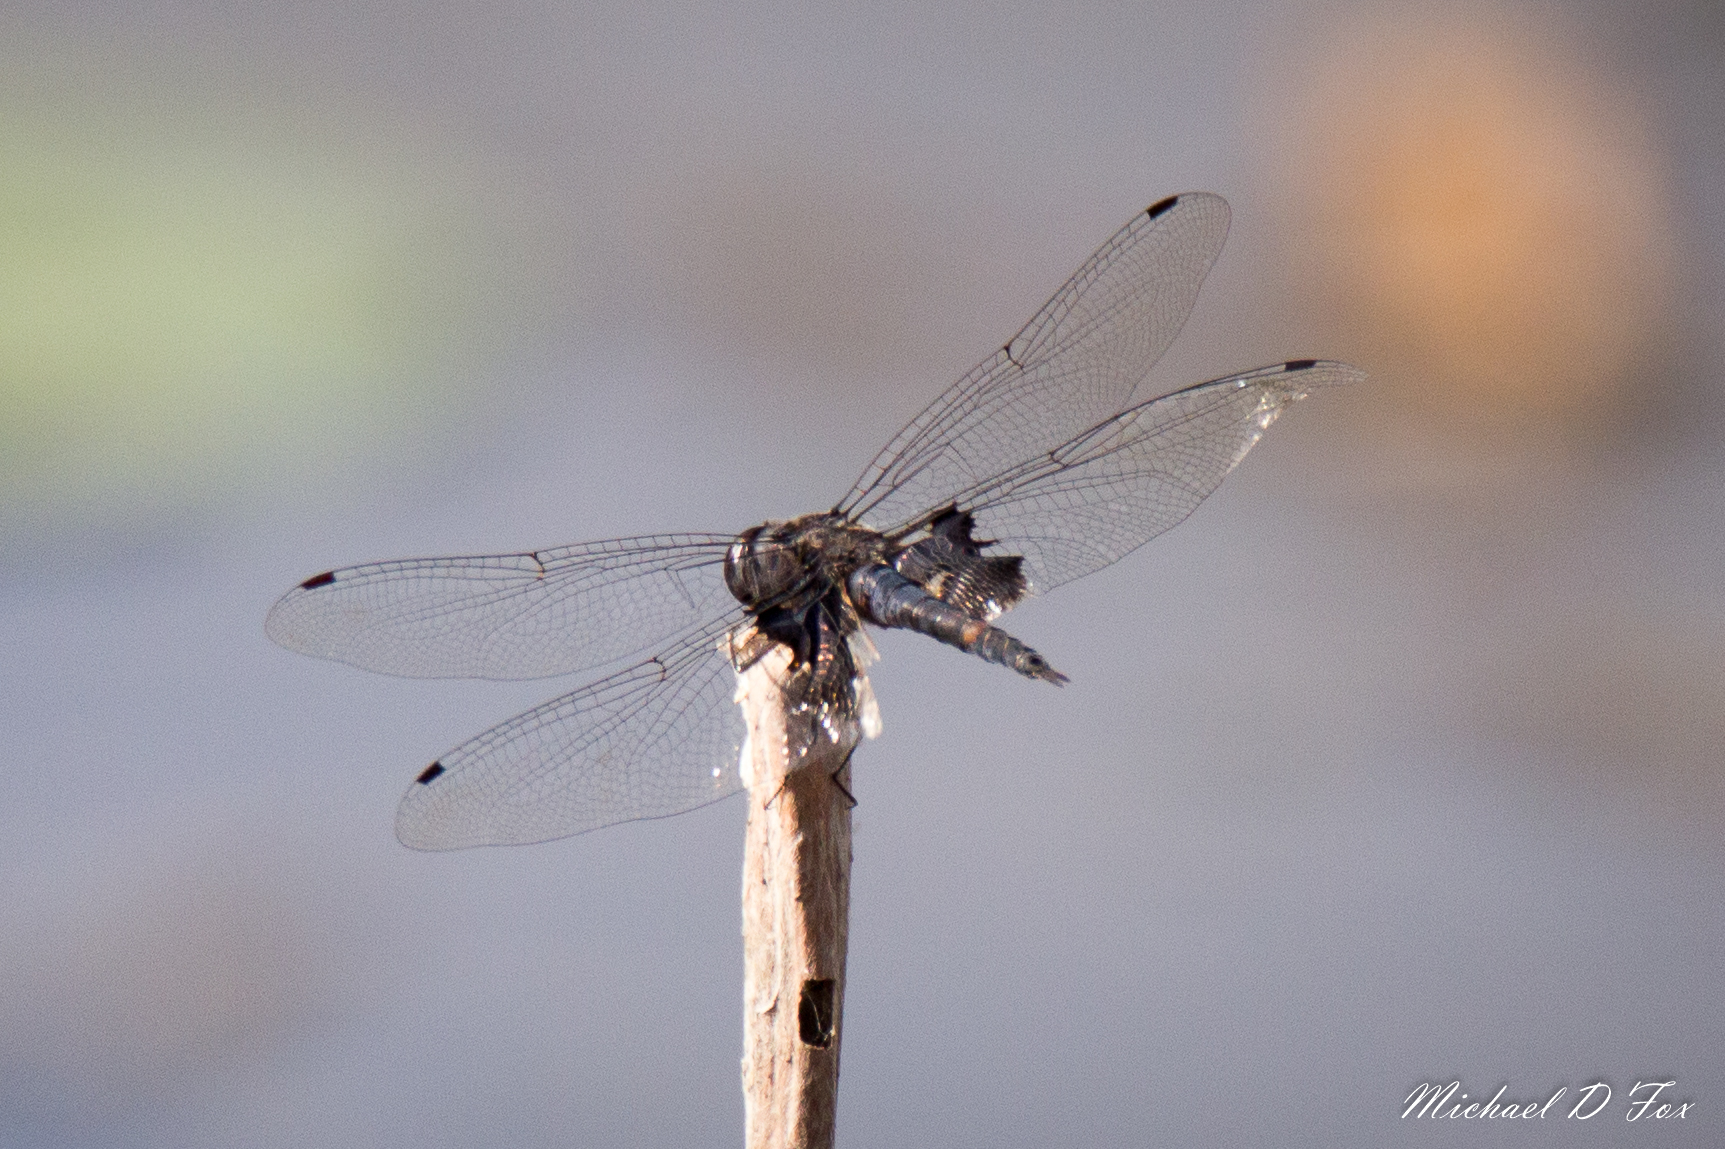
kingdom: Animalia
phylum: Arthropoda
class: Insecta
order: Odonata
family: Libellulidae
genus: Tramea
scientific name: Tramea lacerata
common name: Black saddlebags
